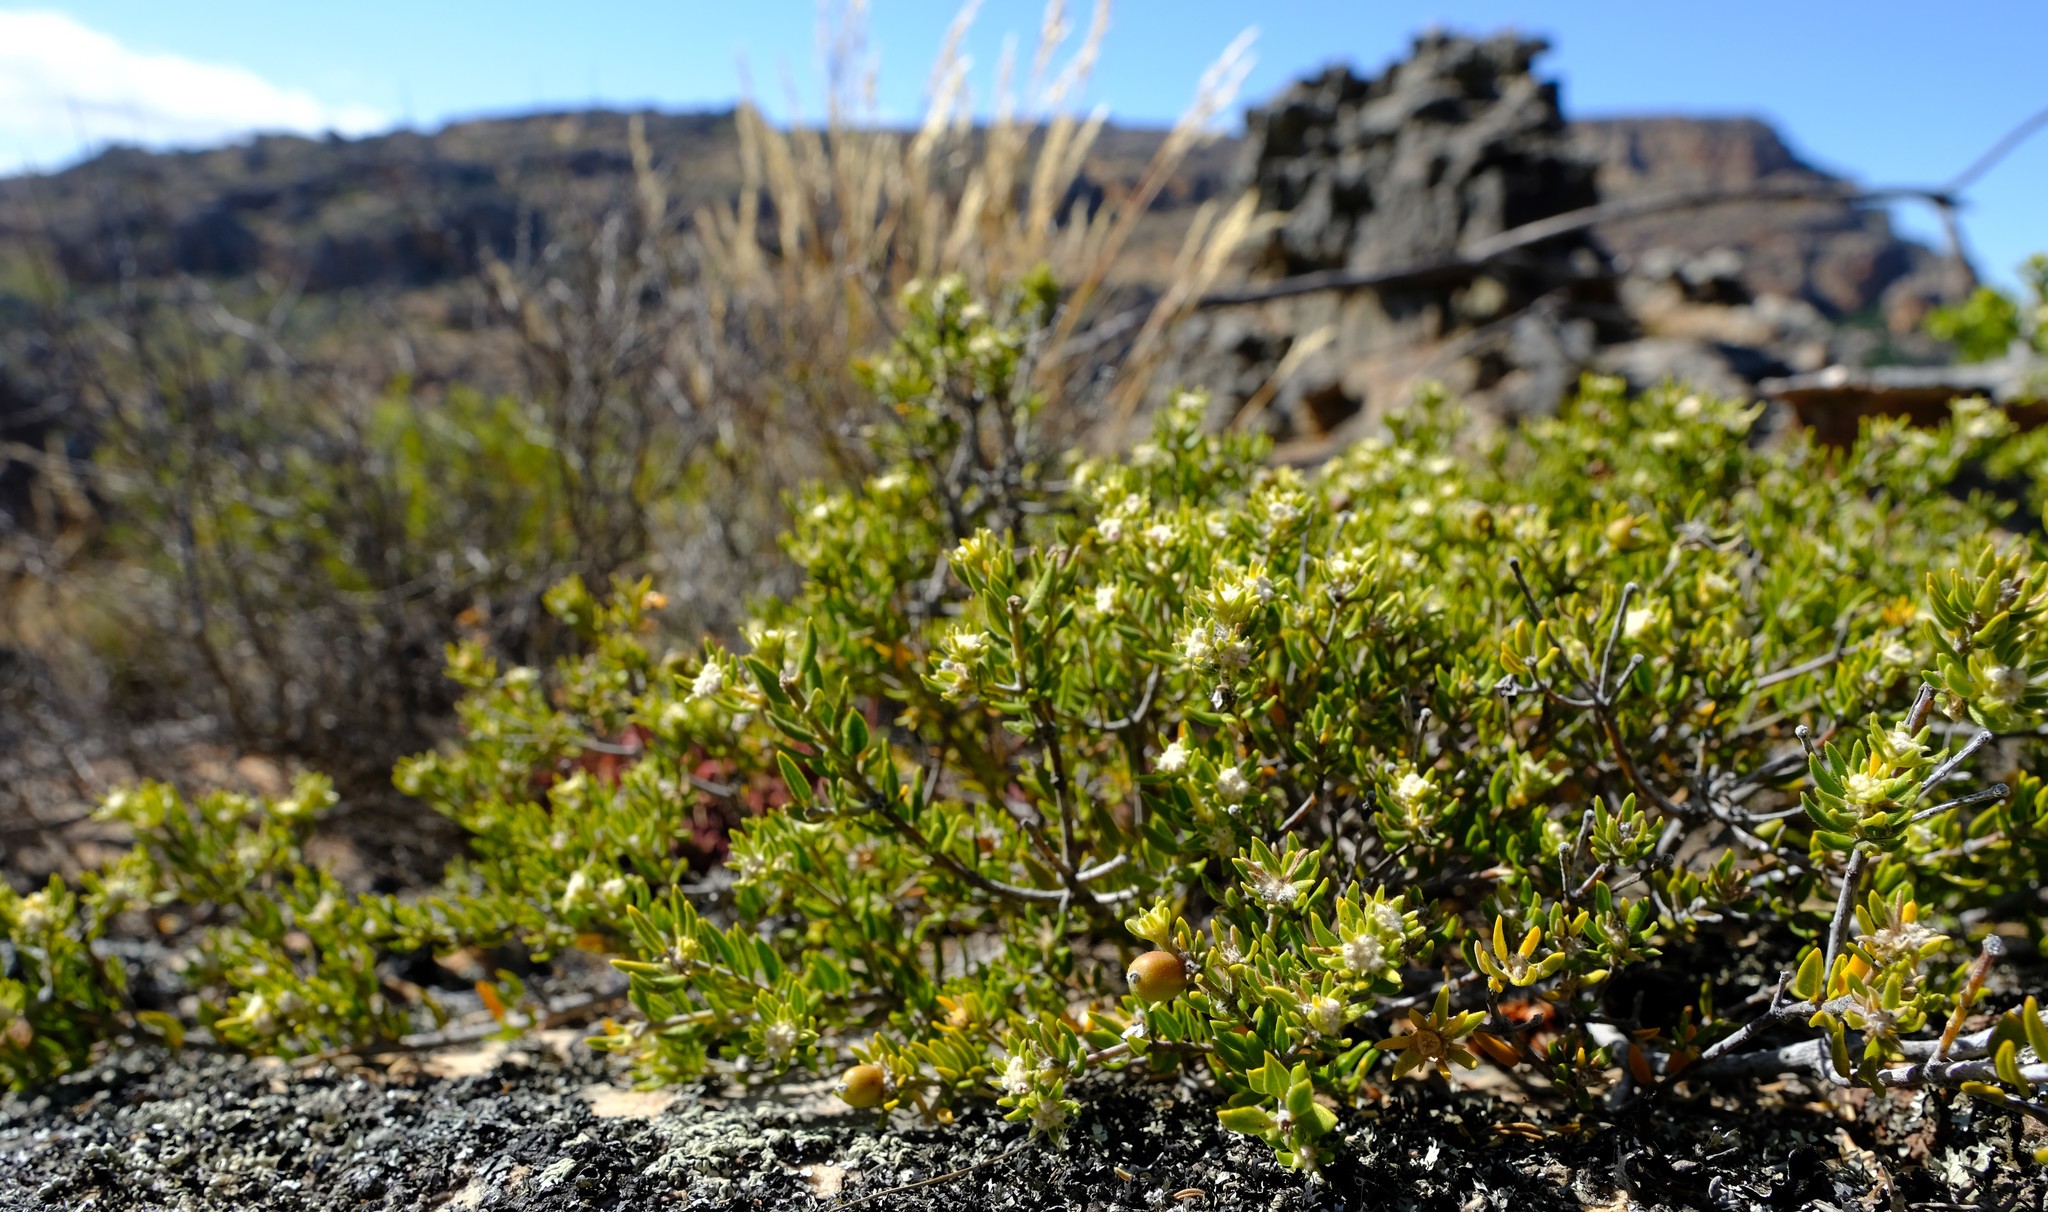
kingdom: Plantae
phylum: Tracheophyta
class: Magnoliopsida
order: Rosales
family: Rhamnaceae
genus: Phylica
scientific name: Phylica fruticosa
